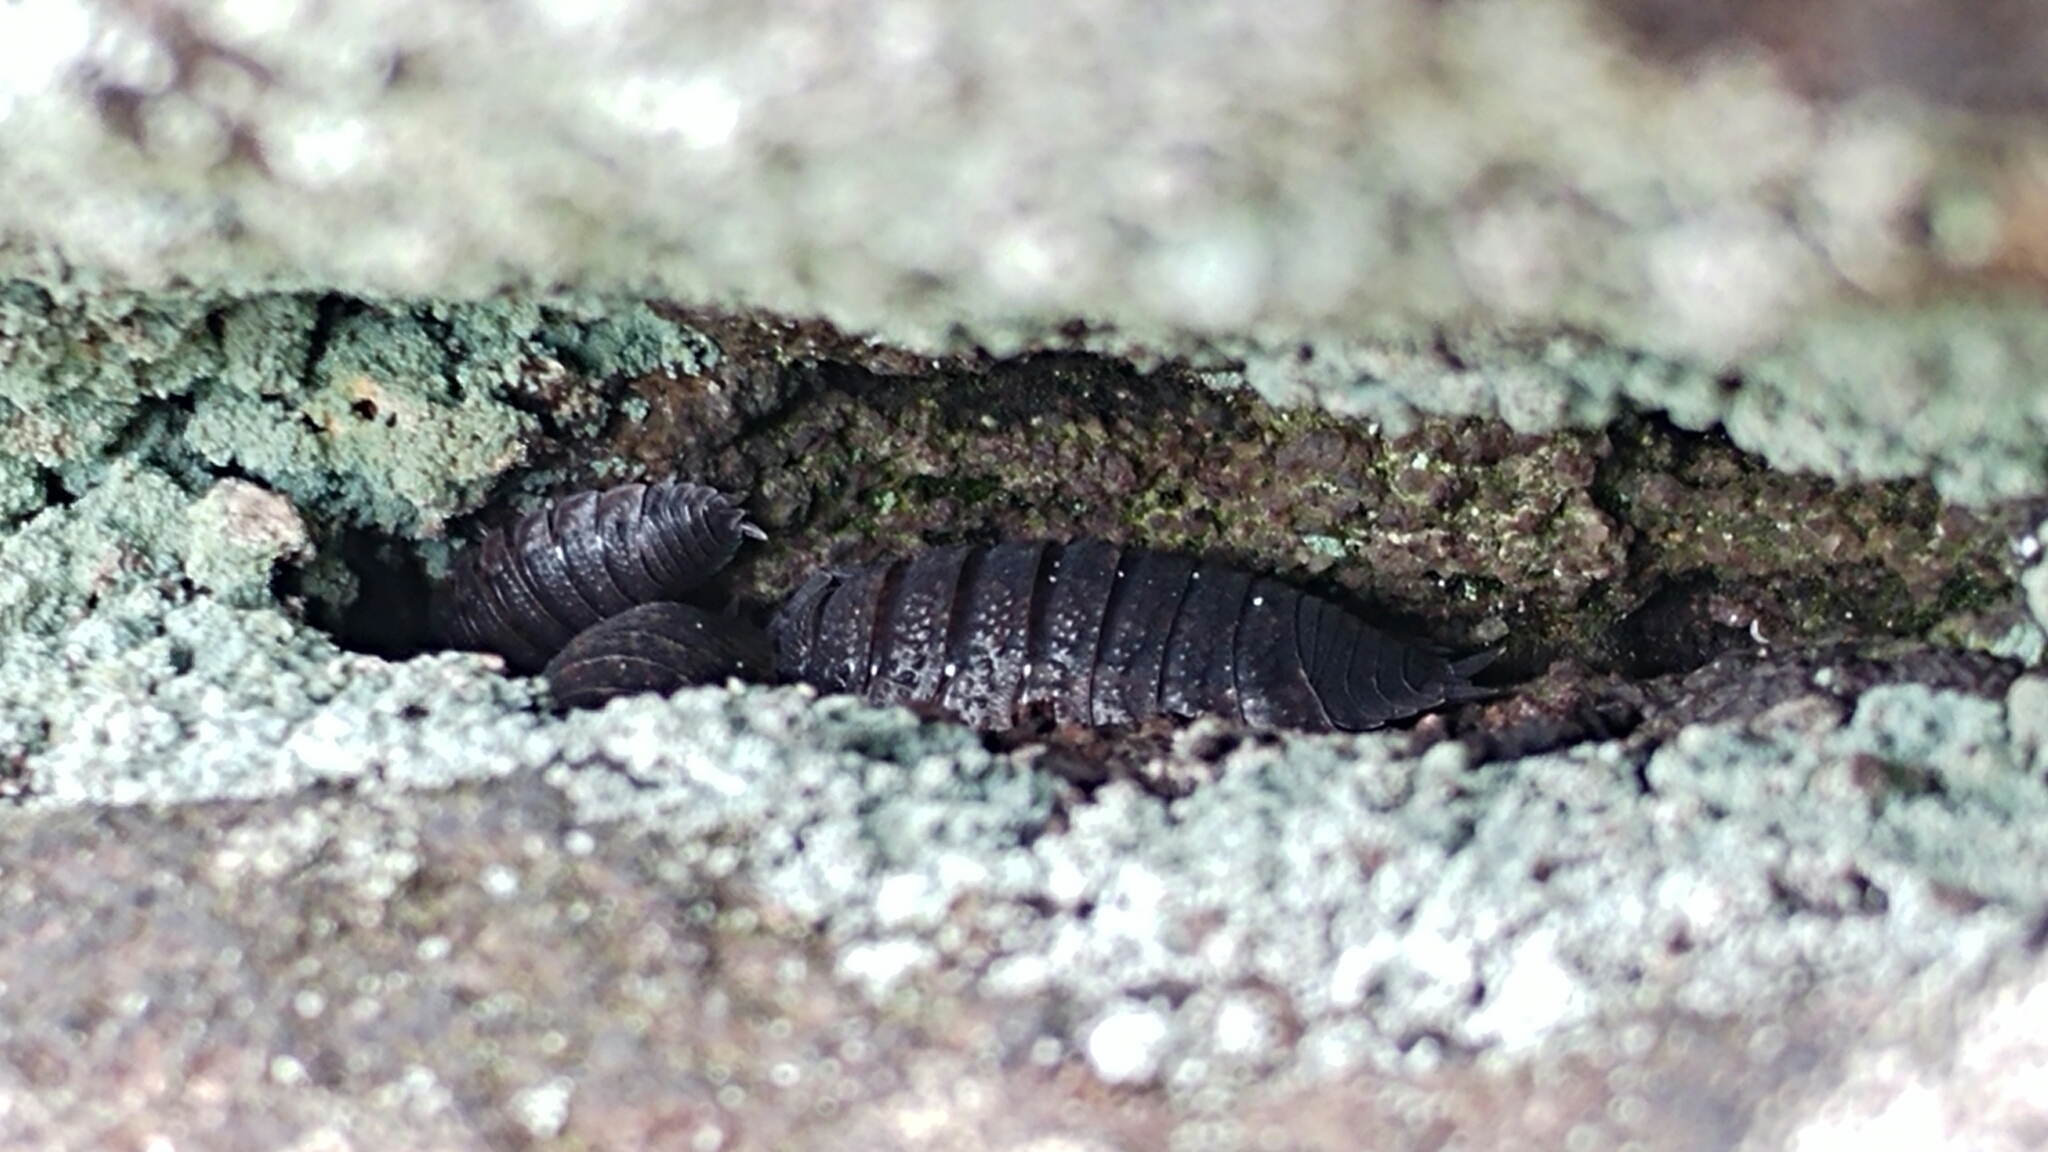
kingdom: Animalia
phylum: Arthropoda
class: Malacostraca
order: Isopoda
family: Porcellionidae
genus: Porcellio
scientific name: Porcellio scaber
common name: Common rough woodlouse
